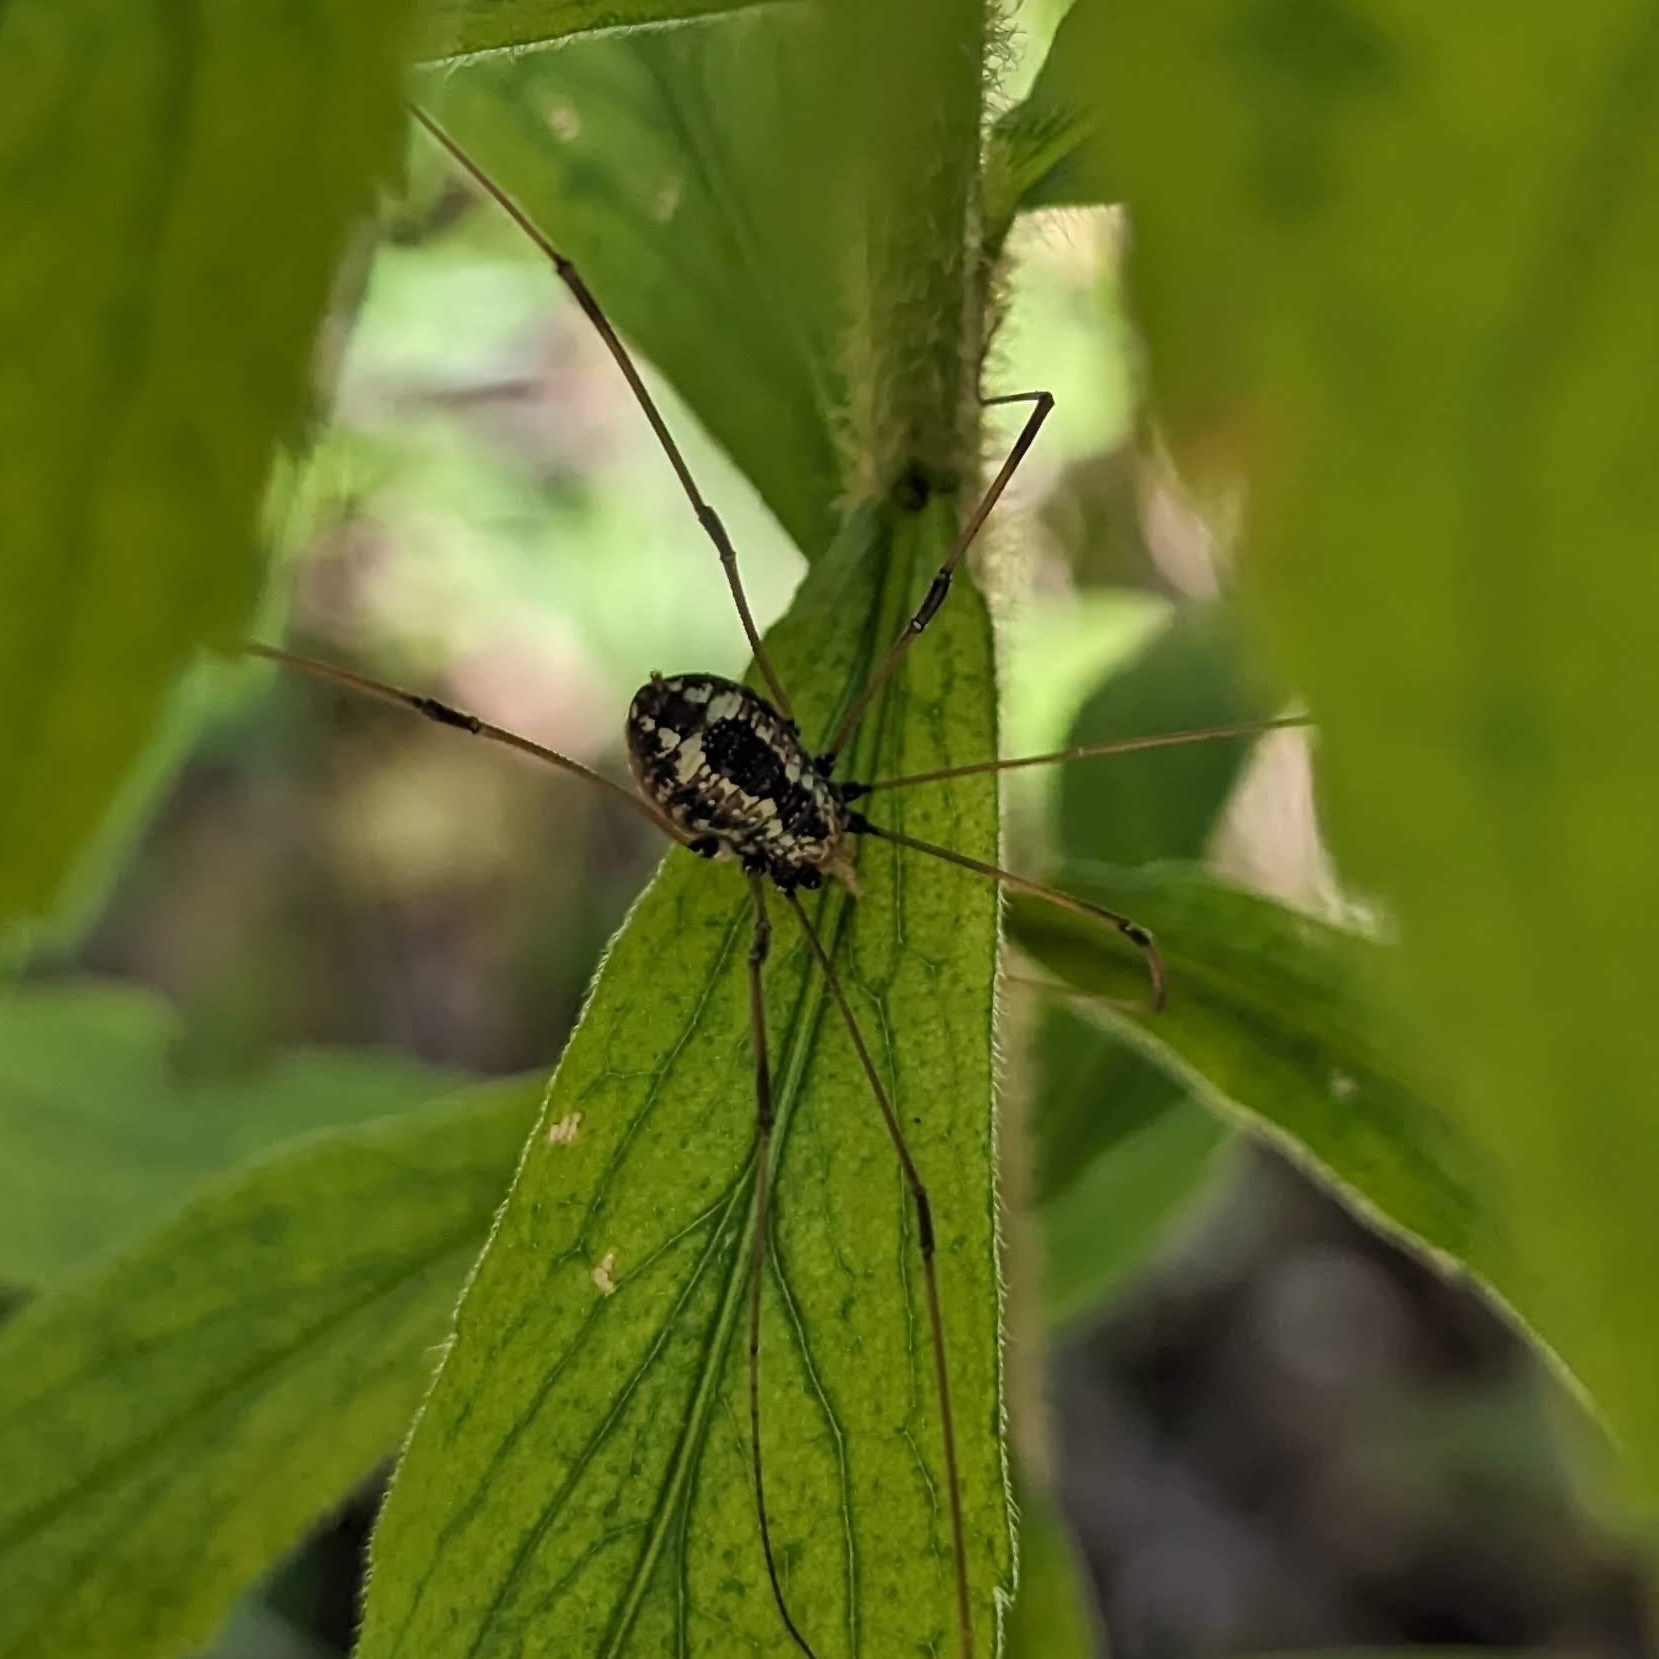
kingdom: Animalia
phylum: Arthropoda
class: Arachnida
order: Opiliones
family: Sclerosomatidae
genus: Leiobunum
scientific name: Leiobunum vittatum
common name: Eastern harvestman
